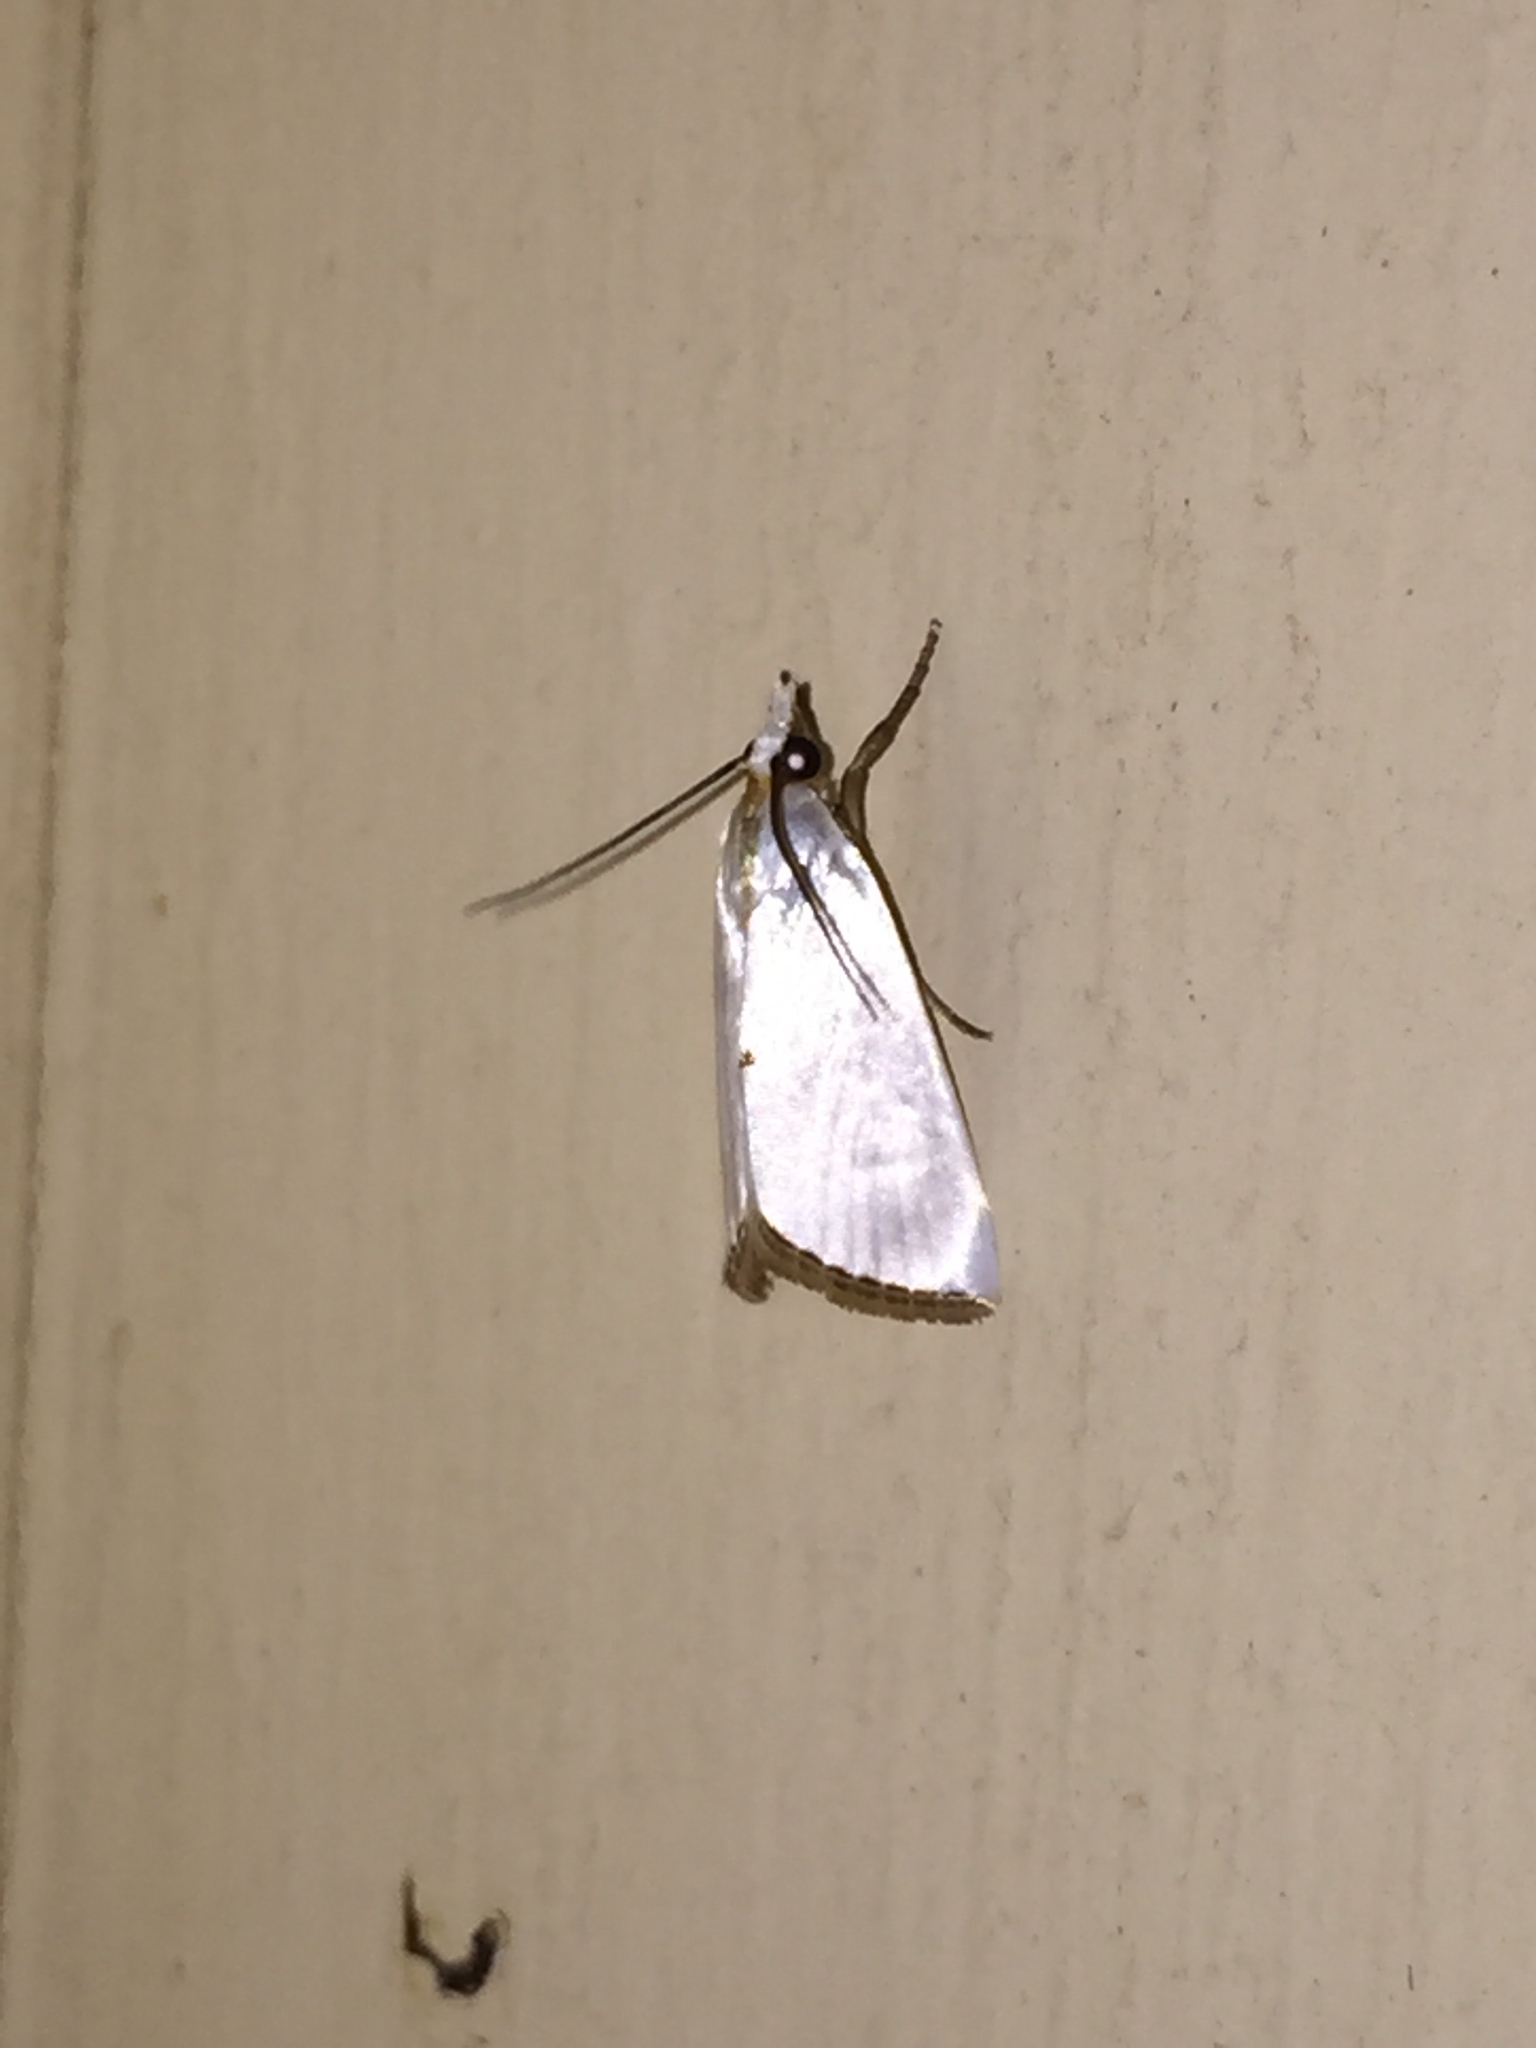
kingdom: Animalia
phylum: Arthropoda
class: Insecta
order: Lepidoptera
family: Crambidae
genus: Argyria
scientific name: Argyria nivalis
